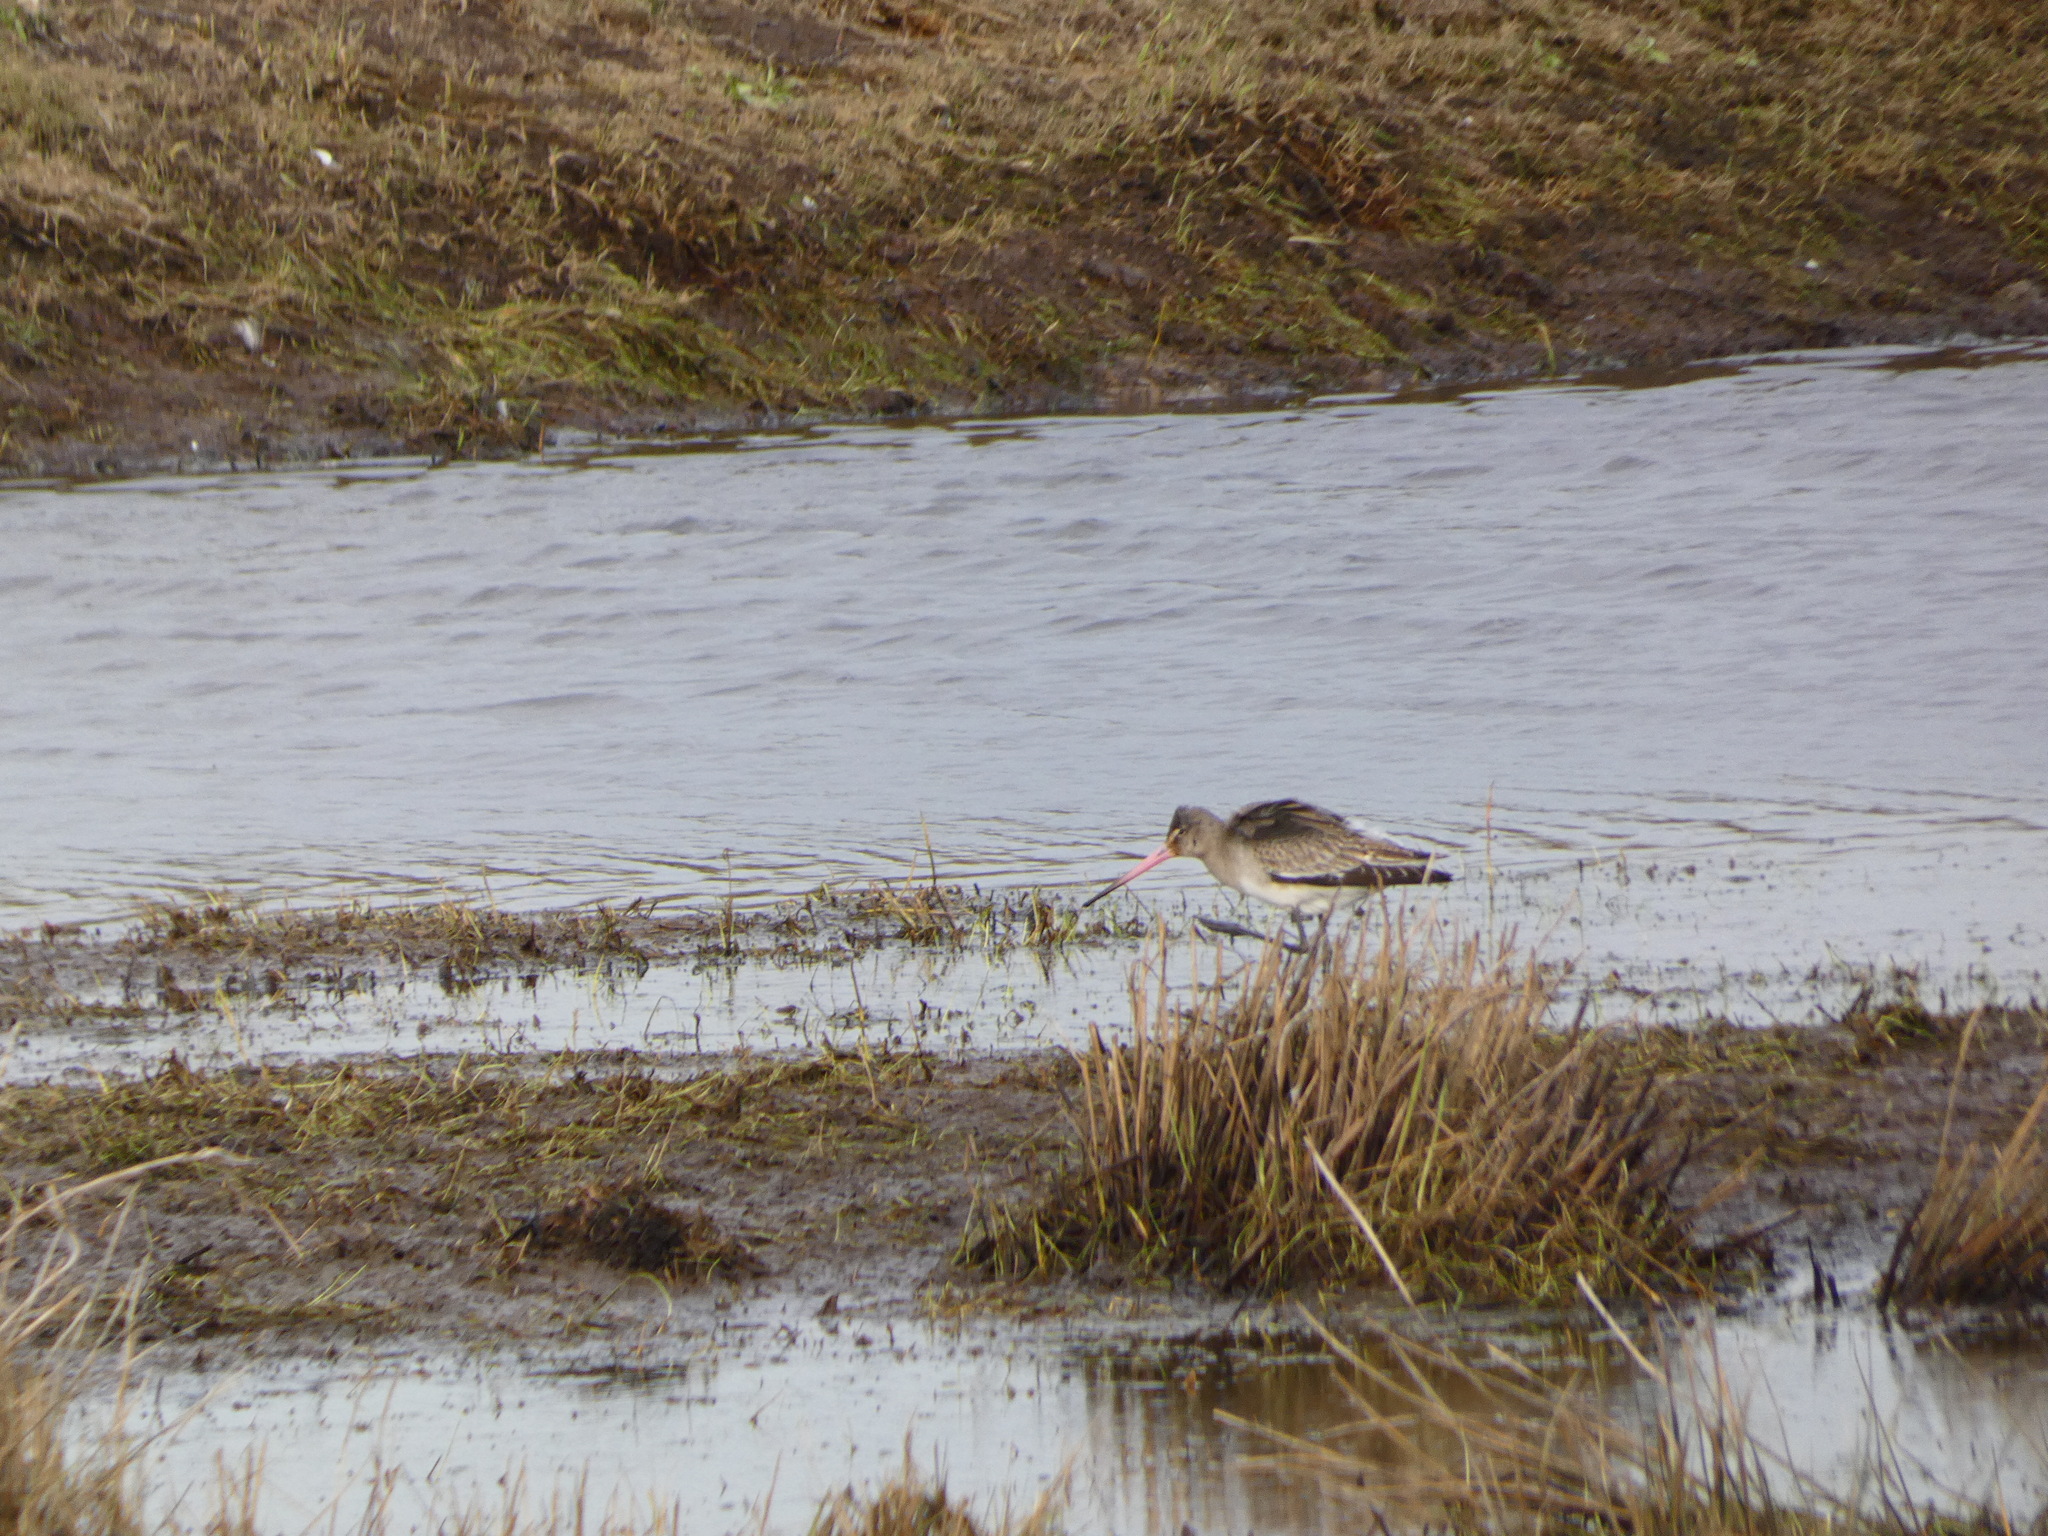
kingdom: Animalia
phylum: Chordata
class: Aves
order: Charadriiformes
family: Scolopacidae
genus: Limosa
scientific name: Limosa limosa
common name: Black-tailed godwit
